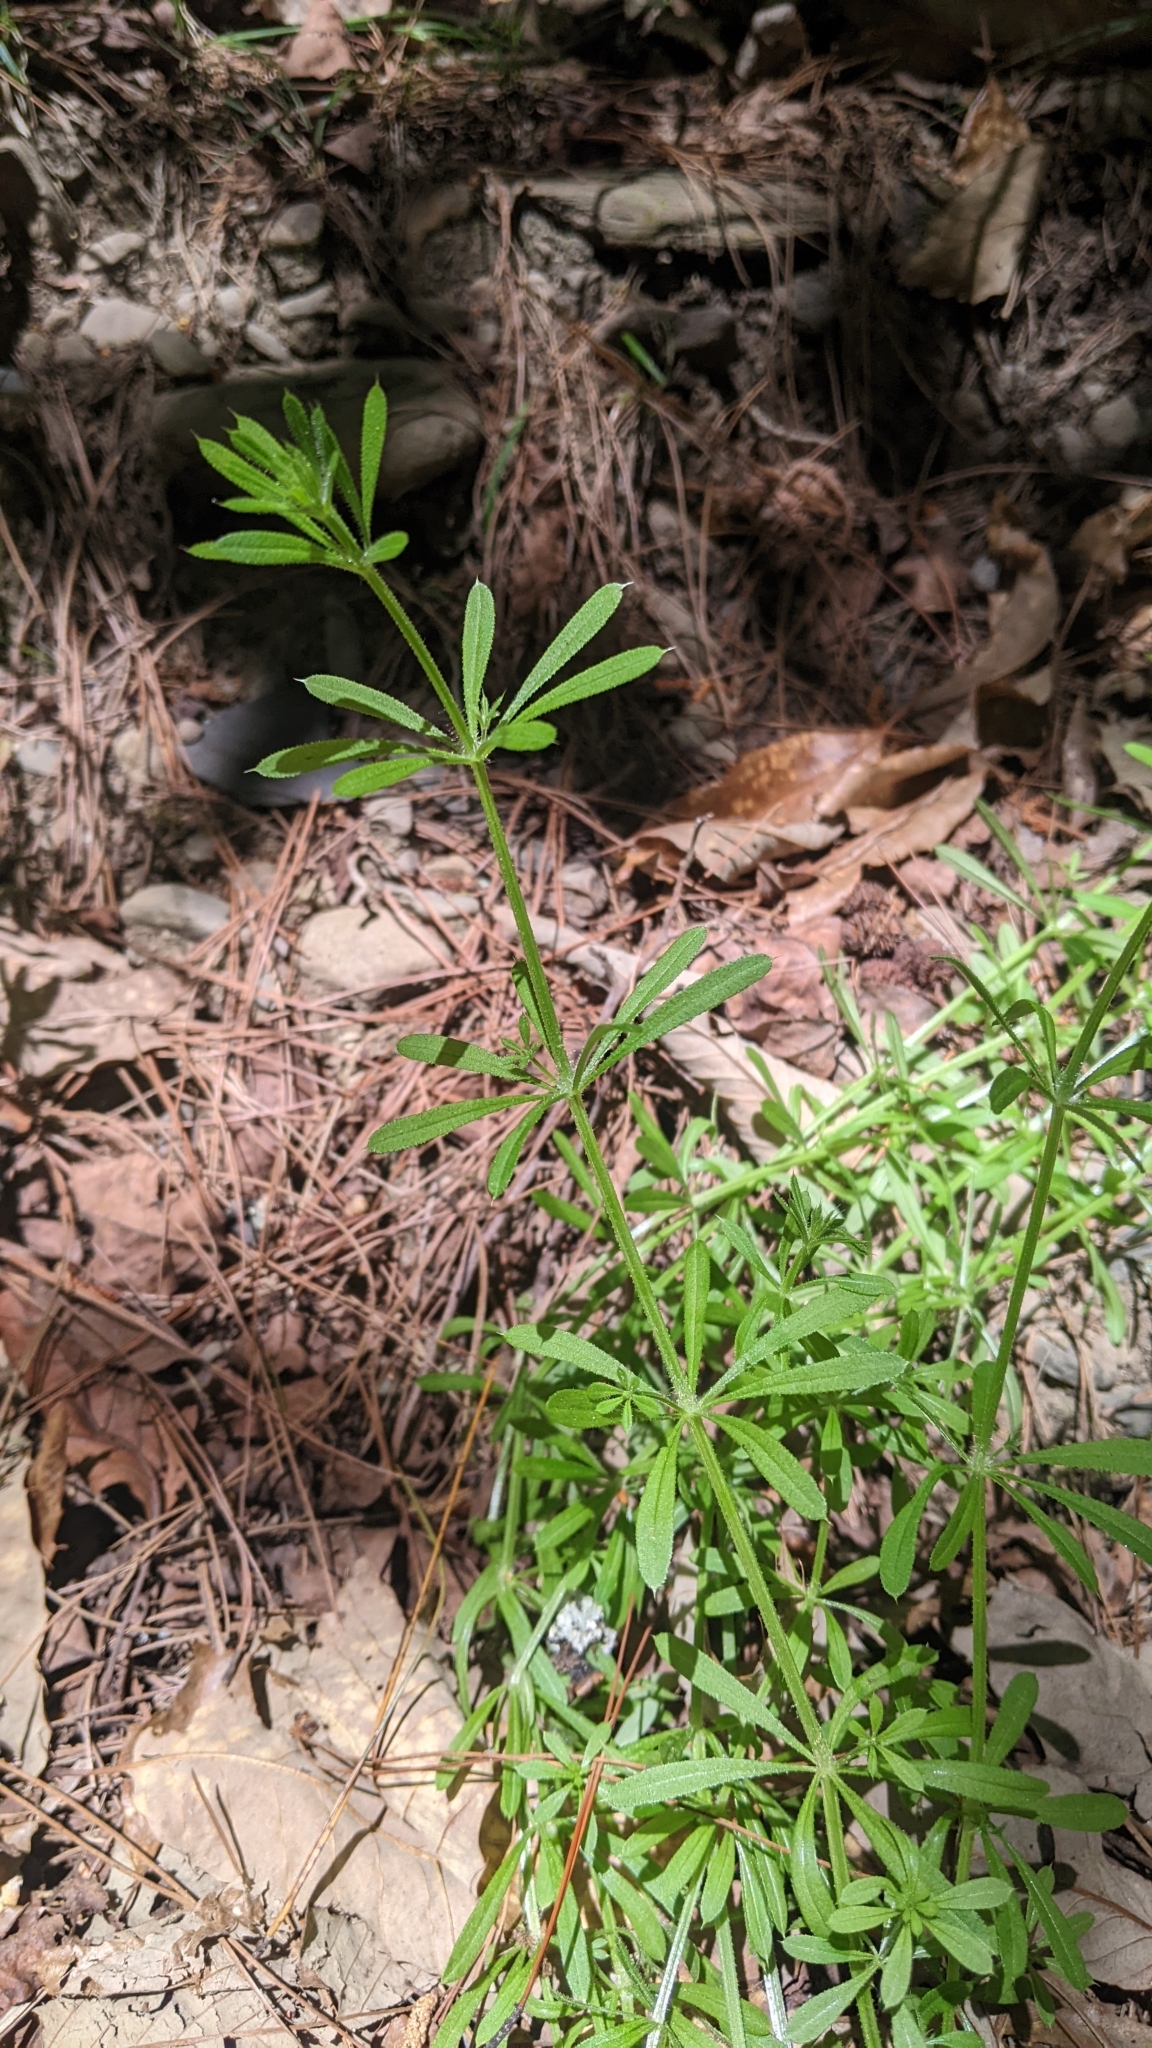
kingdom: Plantae
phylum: Tracheophyta
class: Magnoliopsida
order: Gentianales
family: Rubiaceae
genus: Galium
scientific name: Galium aparine
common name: Cleavers
